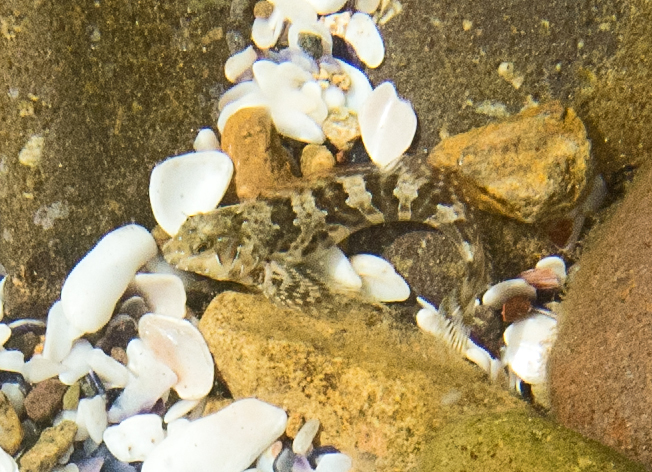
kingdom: Animalia
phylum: Chordata
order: Perciformes
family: Blenniidae
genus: Aidablennius
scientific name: Aidablennius sphynx
